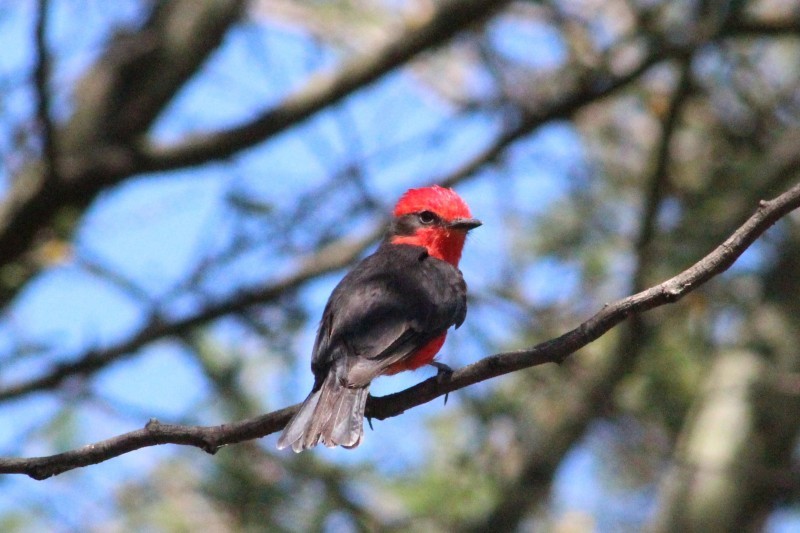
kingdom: Animalia
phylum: Chordata
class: Aves
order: Passeriformes
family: Tyrannidae
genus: Pyrocephalus
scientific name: Pyrocephalus rubinus
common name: Vermilion flycatcher
